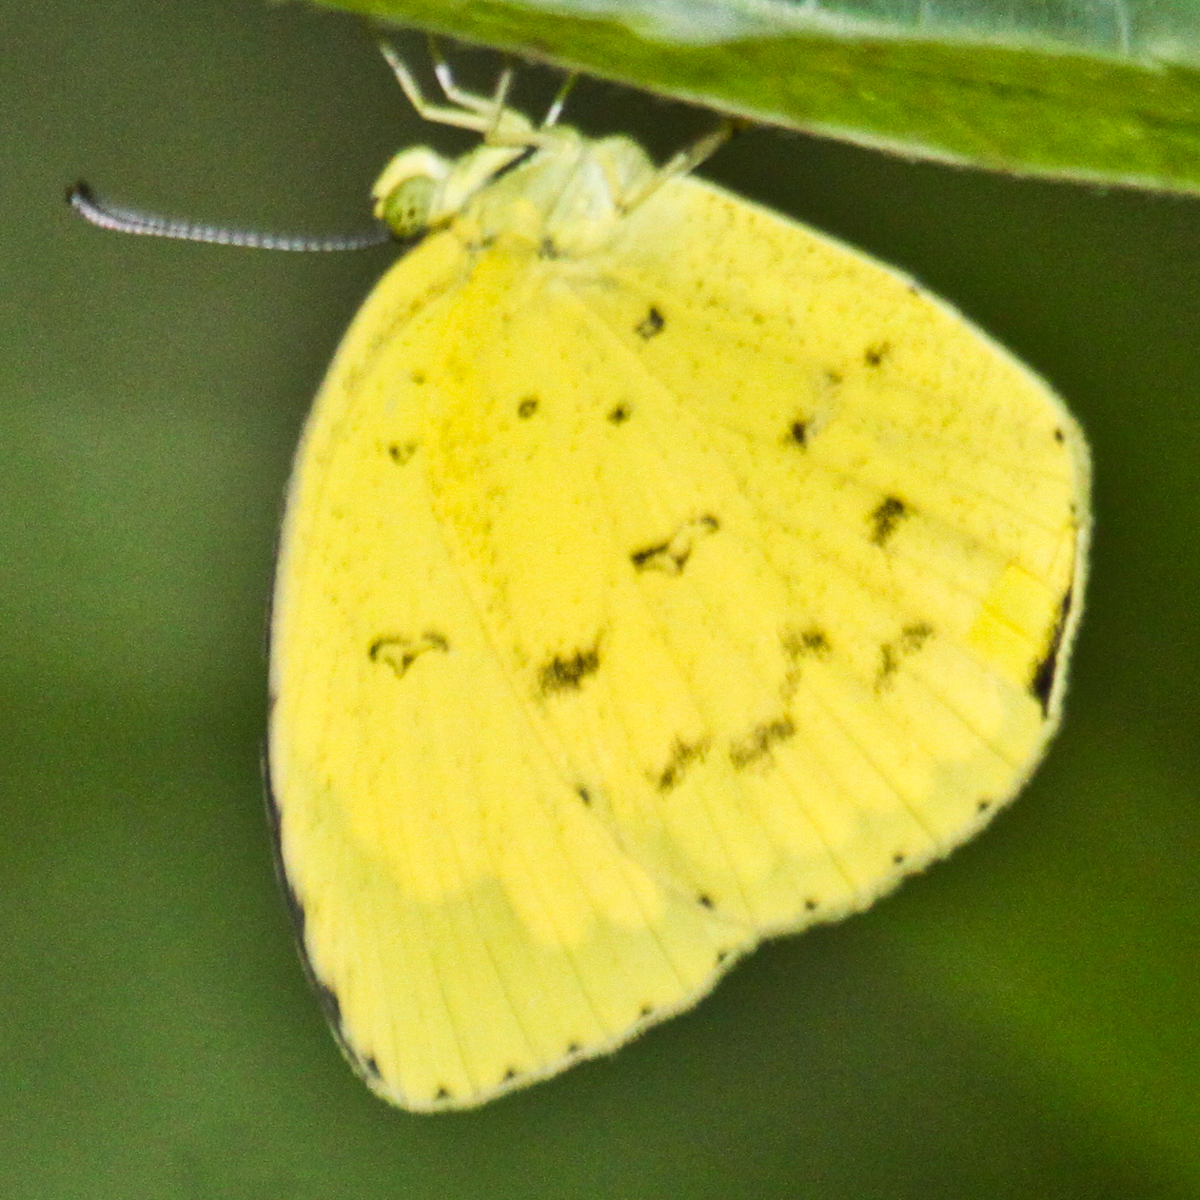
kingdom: Animalia
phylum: Arthropoda
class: Insecta
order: Lepidoptera
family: Pieridae
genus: Eurema
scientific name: Eurema hecabe
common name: Pale grass yellow
